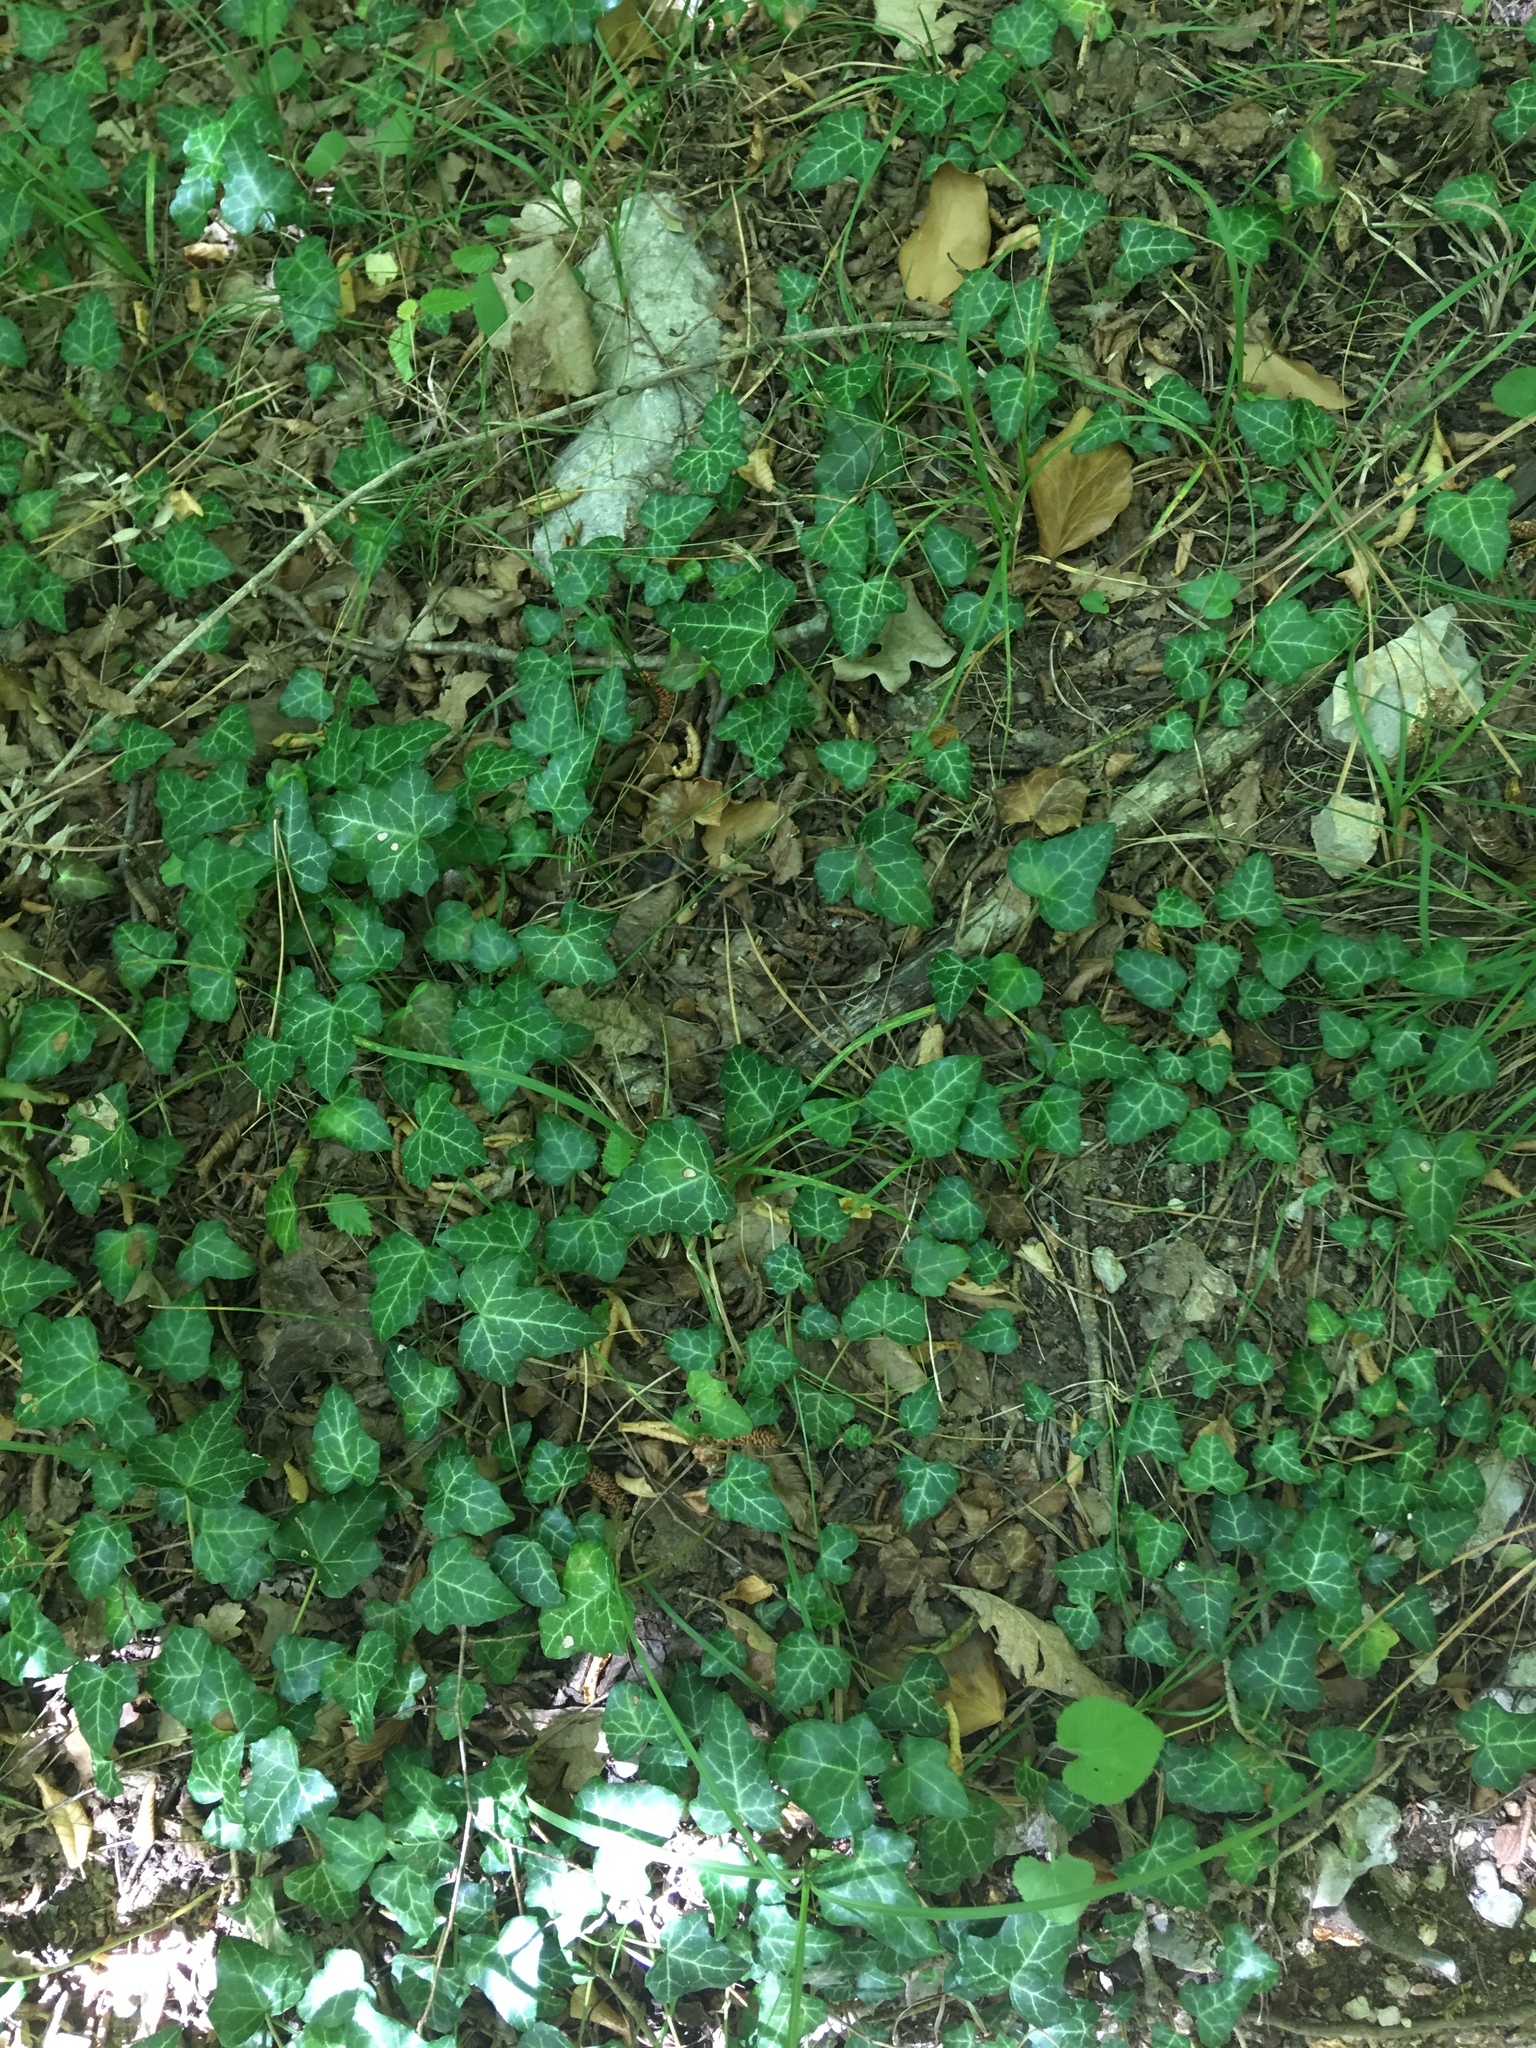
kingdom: Plantae
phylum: Tracheophyta
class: Magnoliopsida
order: Apiales
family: Araliaceae
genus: Hedera
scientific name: Hedera helix
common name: Ivy
